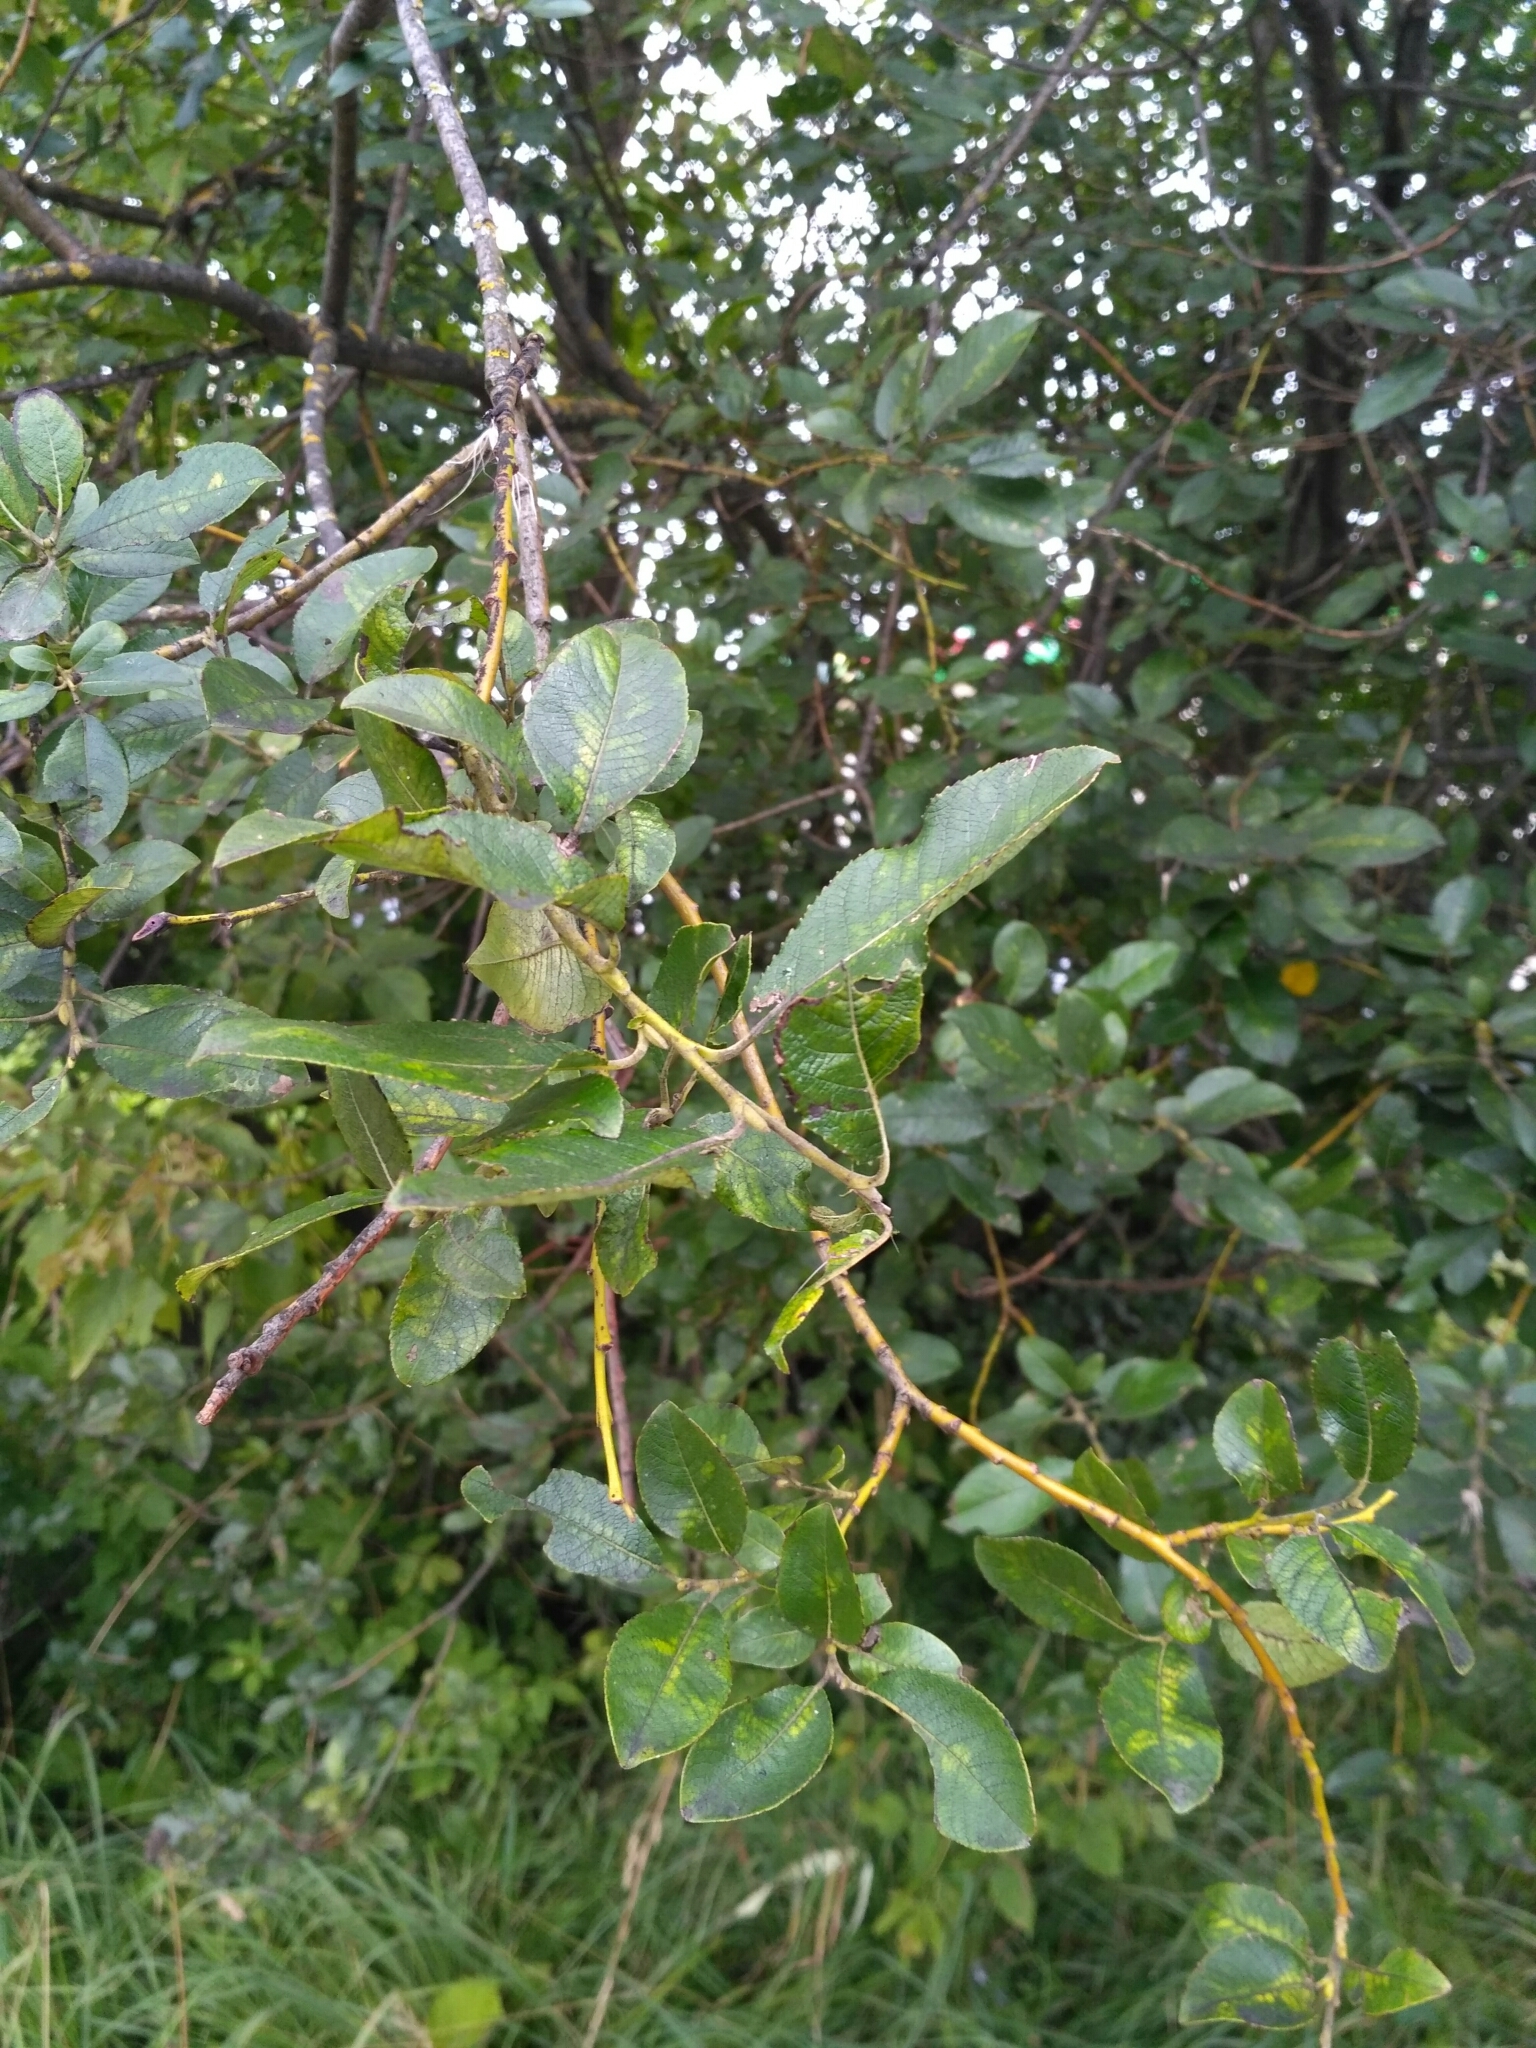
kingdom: Plantae
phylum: Tracheophyta
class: Magnoliopsida
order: Malpighiales
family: Salicaceae
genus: Salix
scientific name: Salix myrsinifolia
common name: Dark-leaved willow
